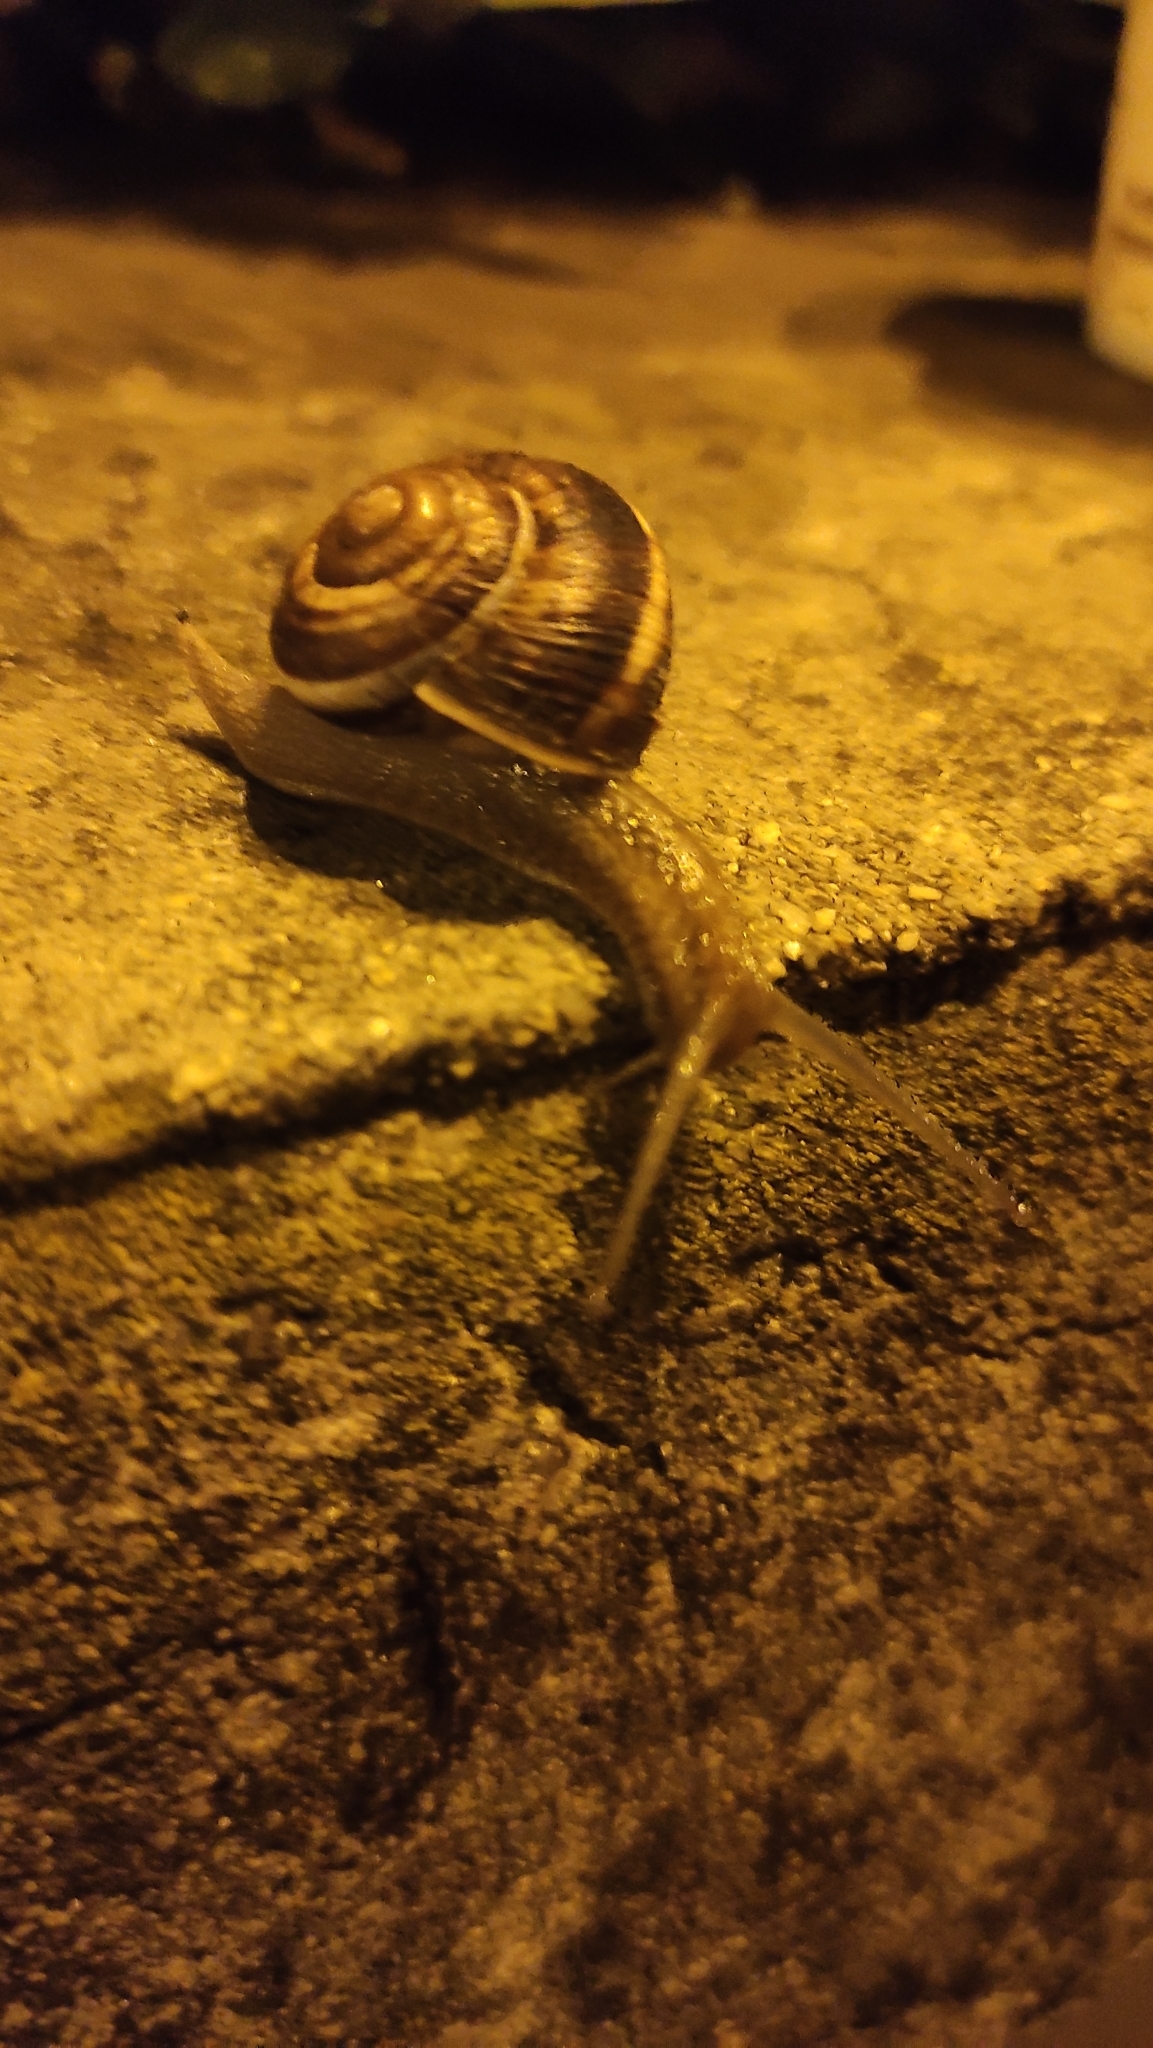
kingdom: Animalia
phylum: Mollusca
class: Gastropoda
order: Stylommatophora
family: Helicidae
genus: Helix
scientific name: Helix lucorum
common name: Turkish snail
